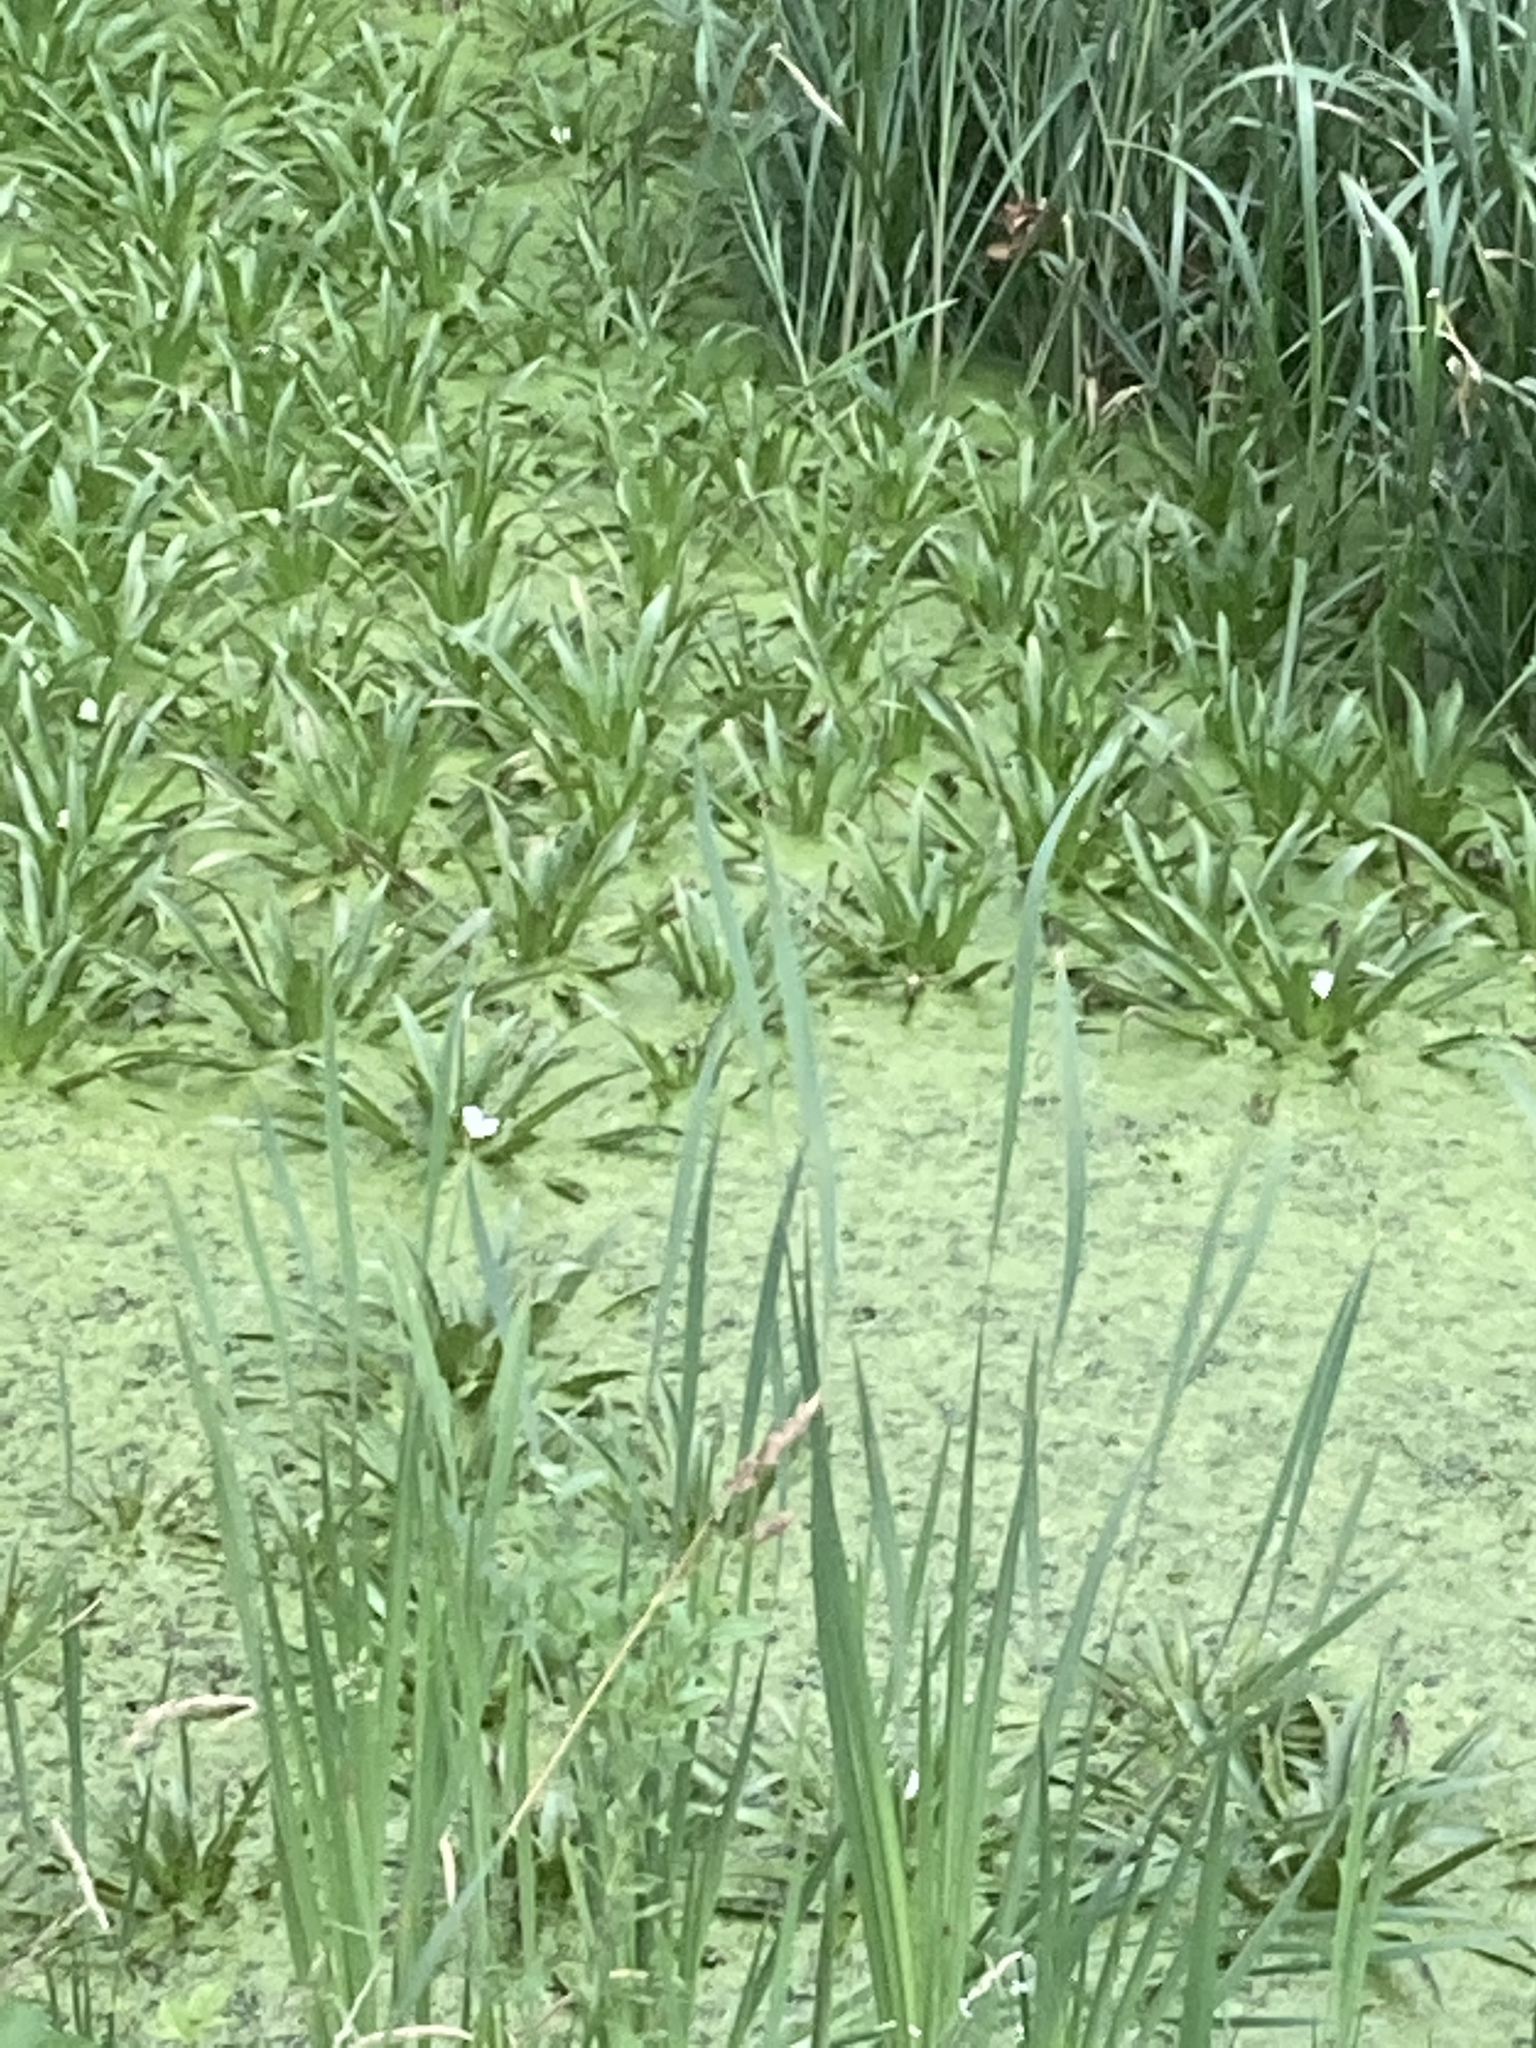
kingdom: Plantae
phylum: Tracheophyta
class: Liliopsida
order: Alismatales
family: Hydrocharitaceae
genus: Stratiotes
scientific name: Stratiotes aloides
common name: Water-soldier
